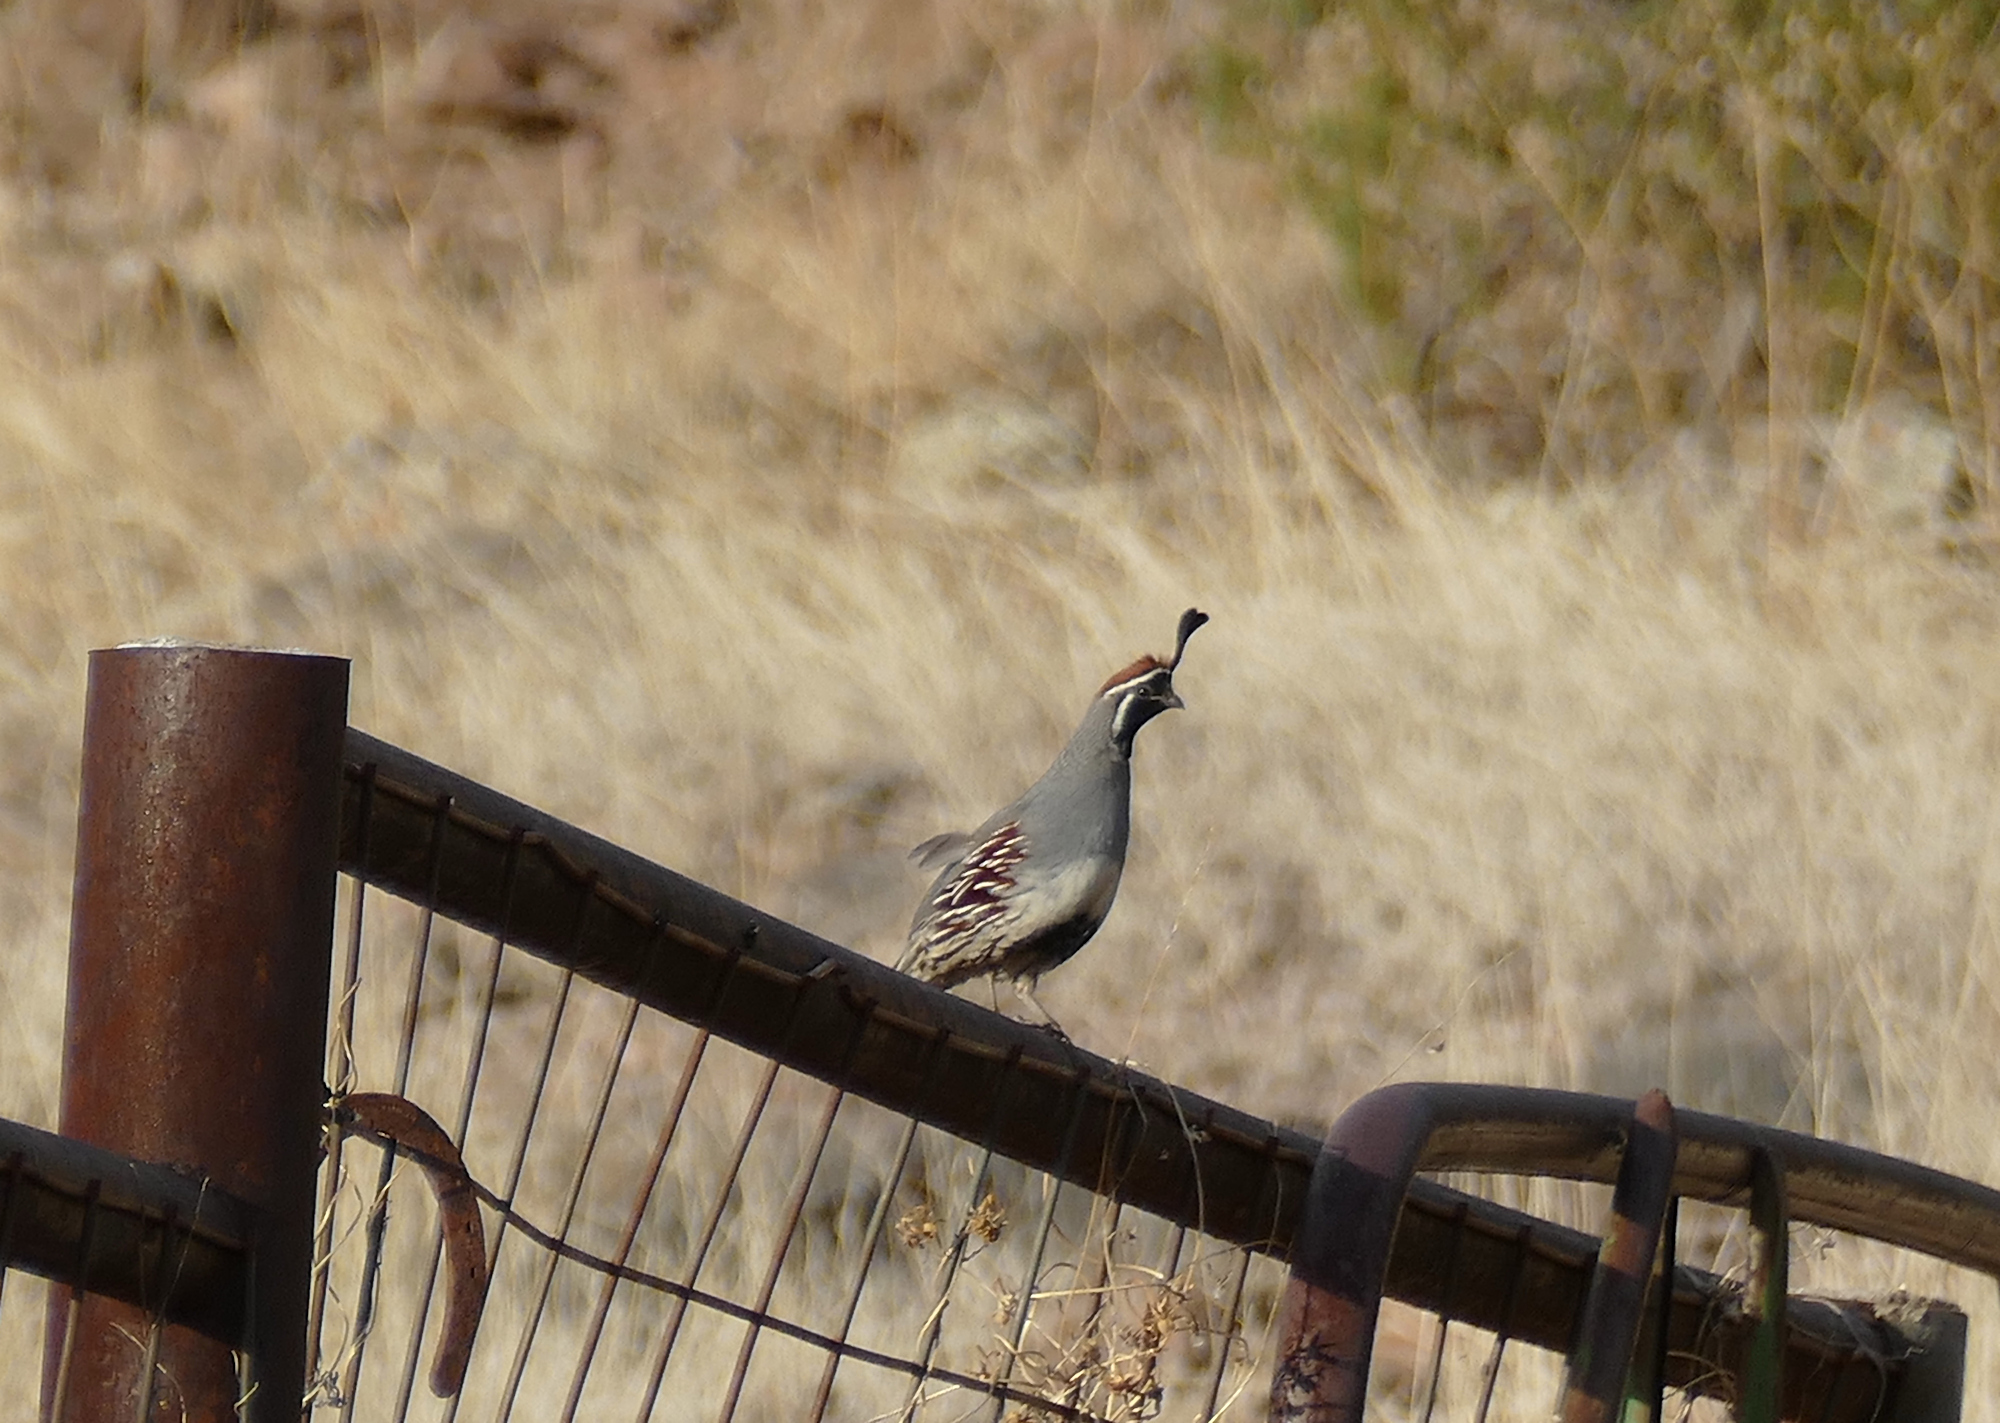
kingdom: Animalia
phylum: Chordata
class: Aves
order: Galliformes
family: Odontophoridae
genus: Callipepla
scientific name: Callipepla gambelii
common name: Gambel's quail
